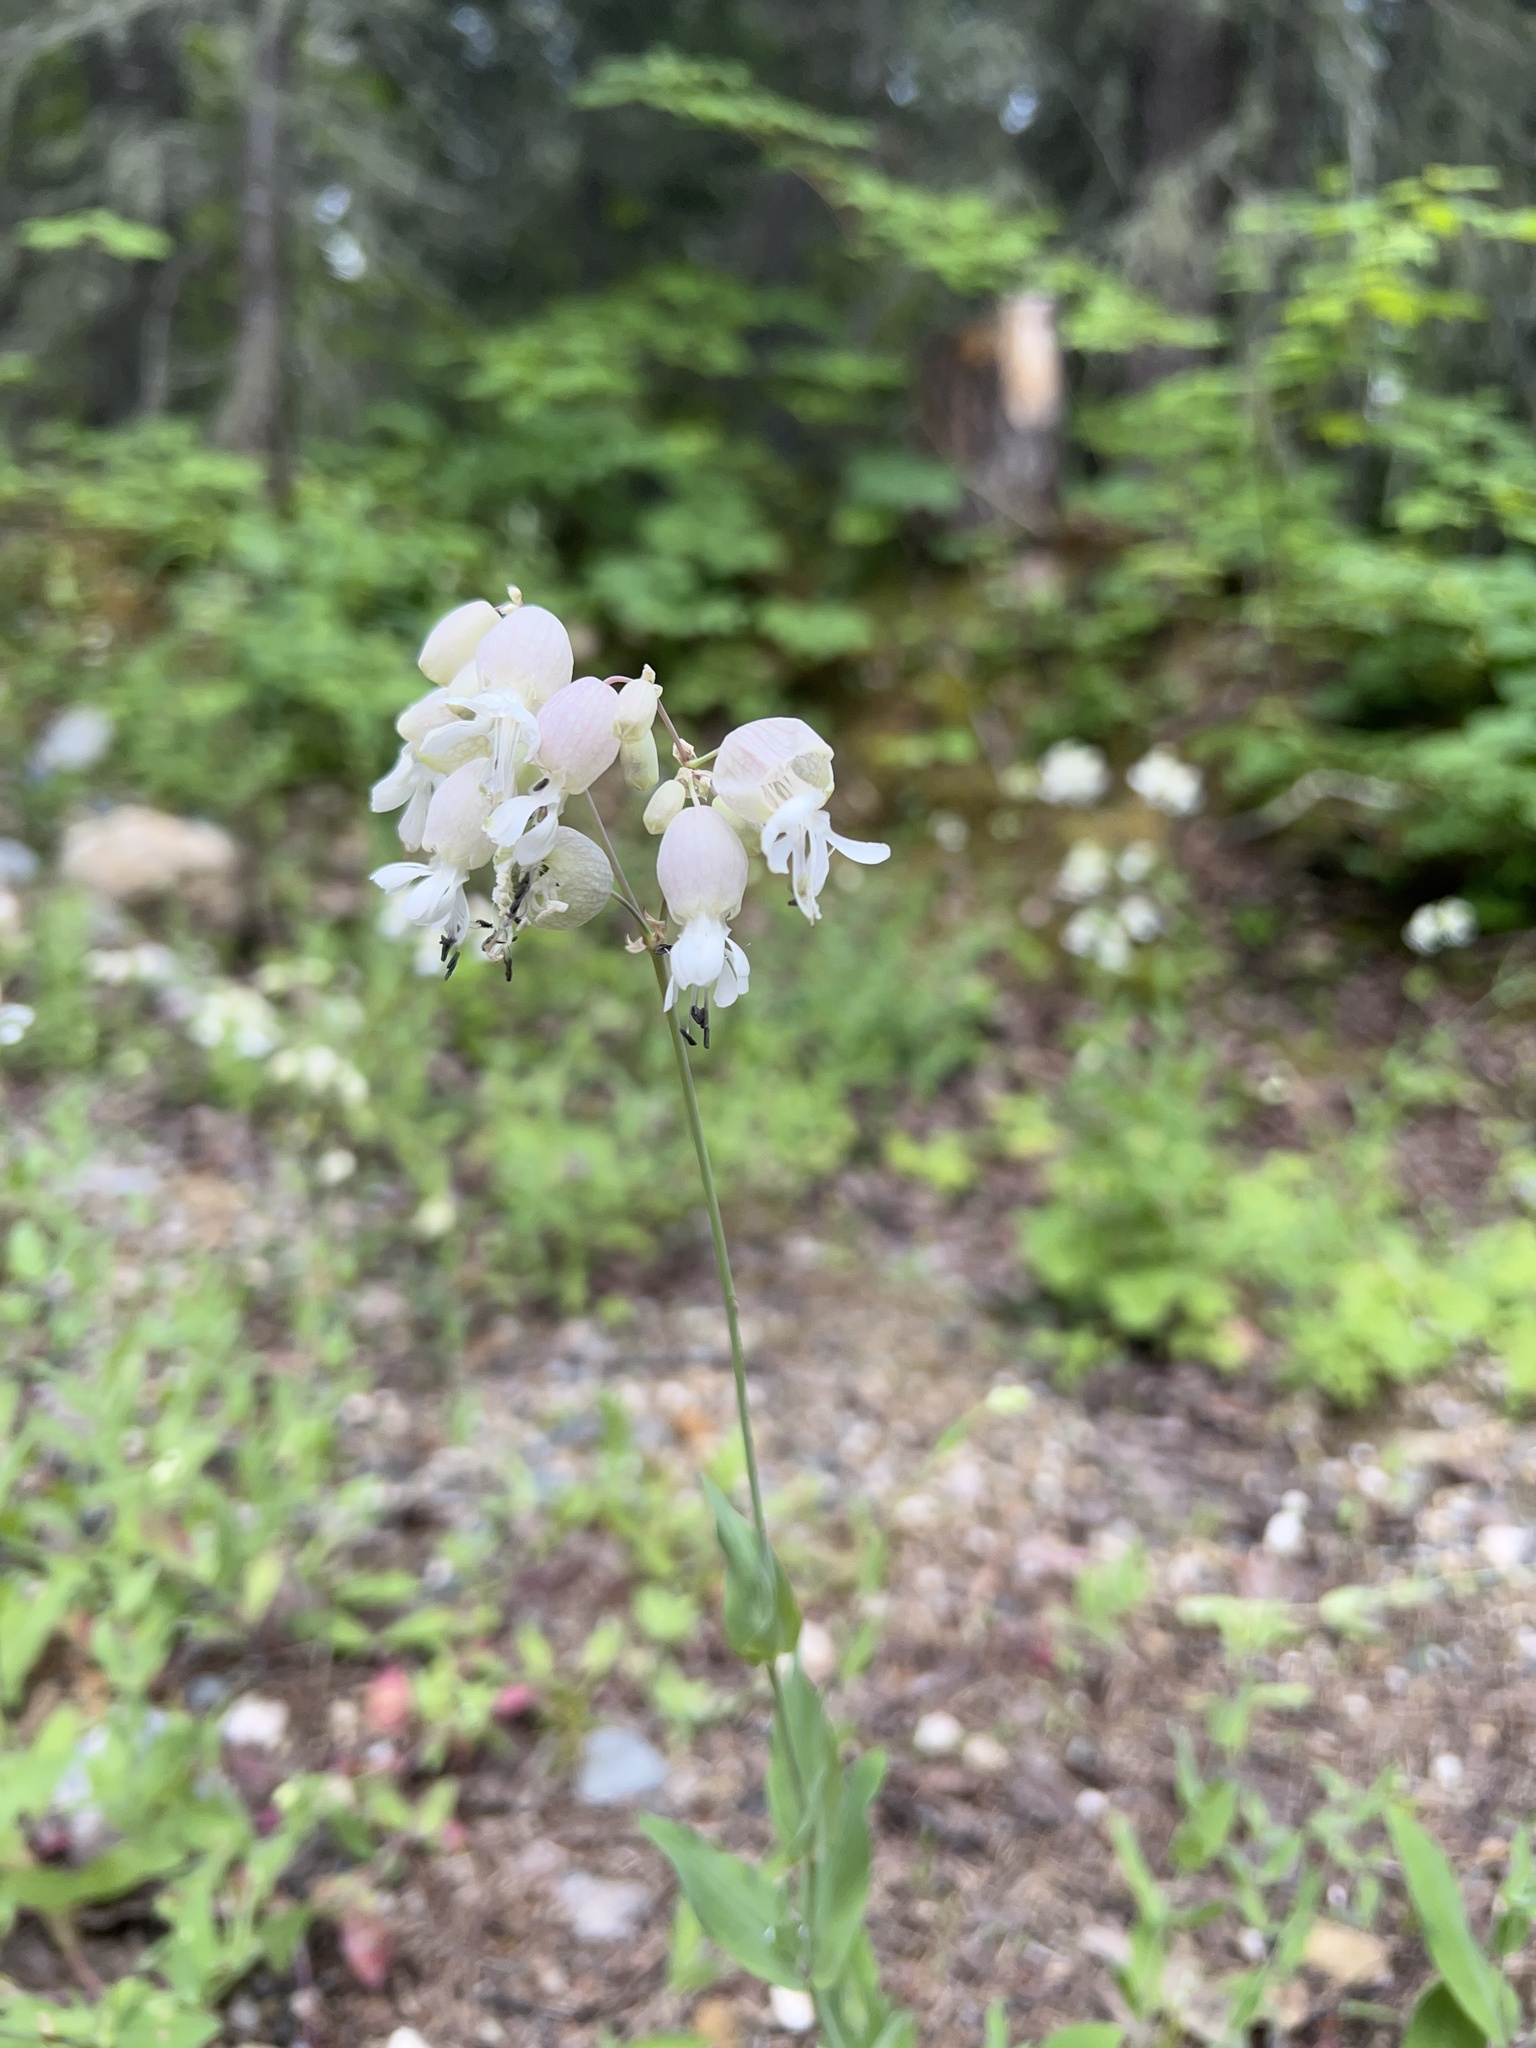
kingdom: Plantae
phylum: Tracheophyta
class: Magnoliopsida
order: Caryophyllales
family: Caryophyllaceae
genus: Silene
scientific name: Silene vulgaris
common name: Bladder campion
